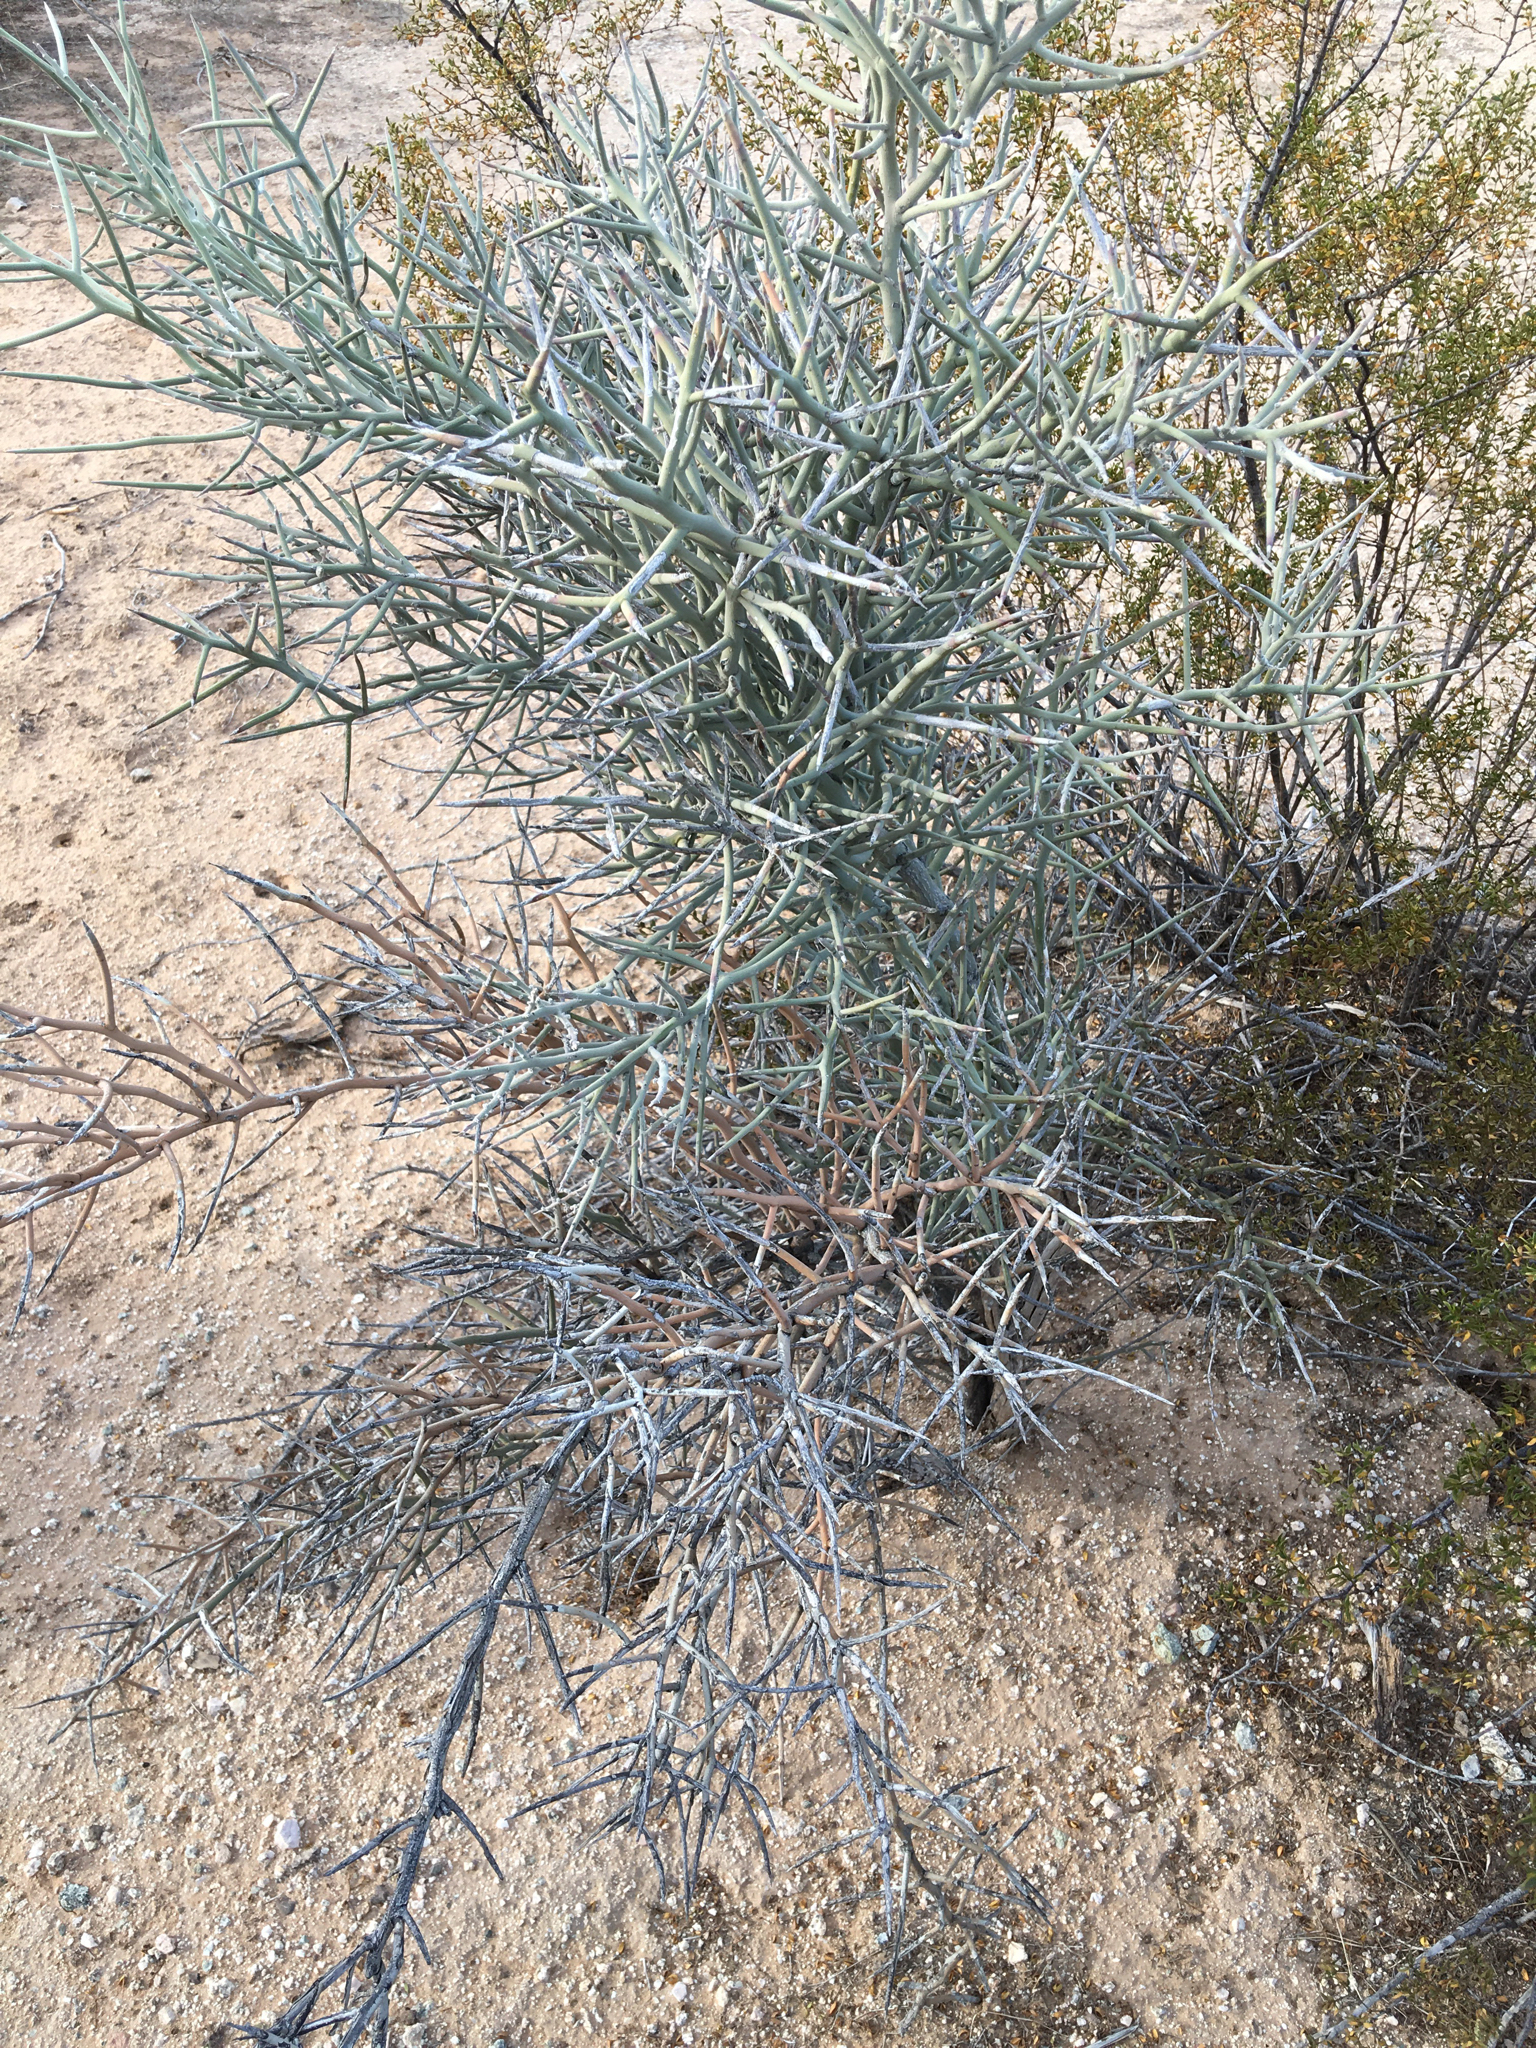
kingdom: Plantae
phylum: Tracheophyta
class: Magnoliopsida
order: Sapindales
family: Simaroubaceae
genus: Holacantha
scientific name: Holacantha emoryi
